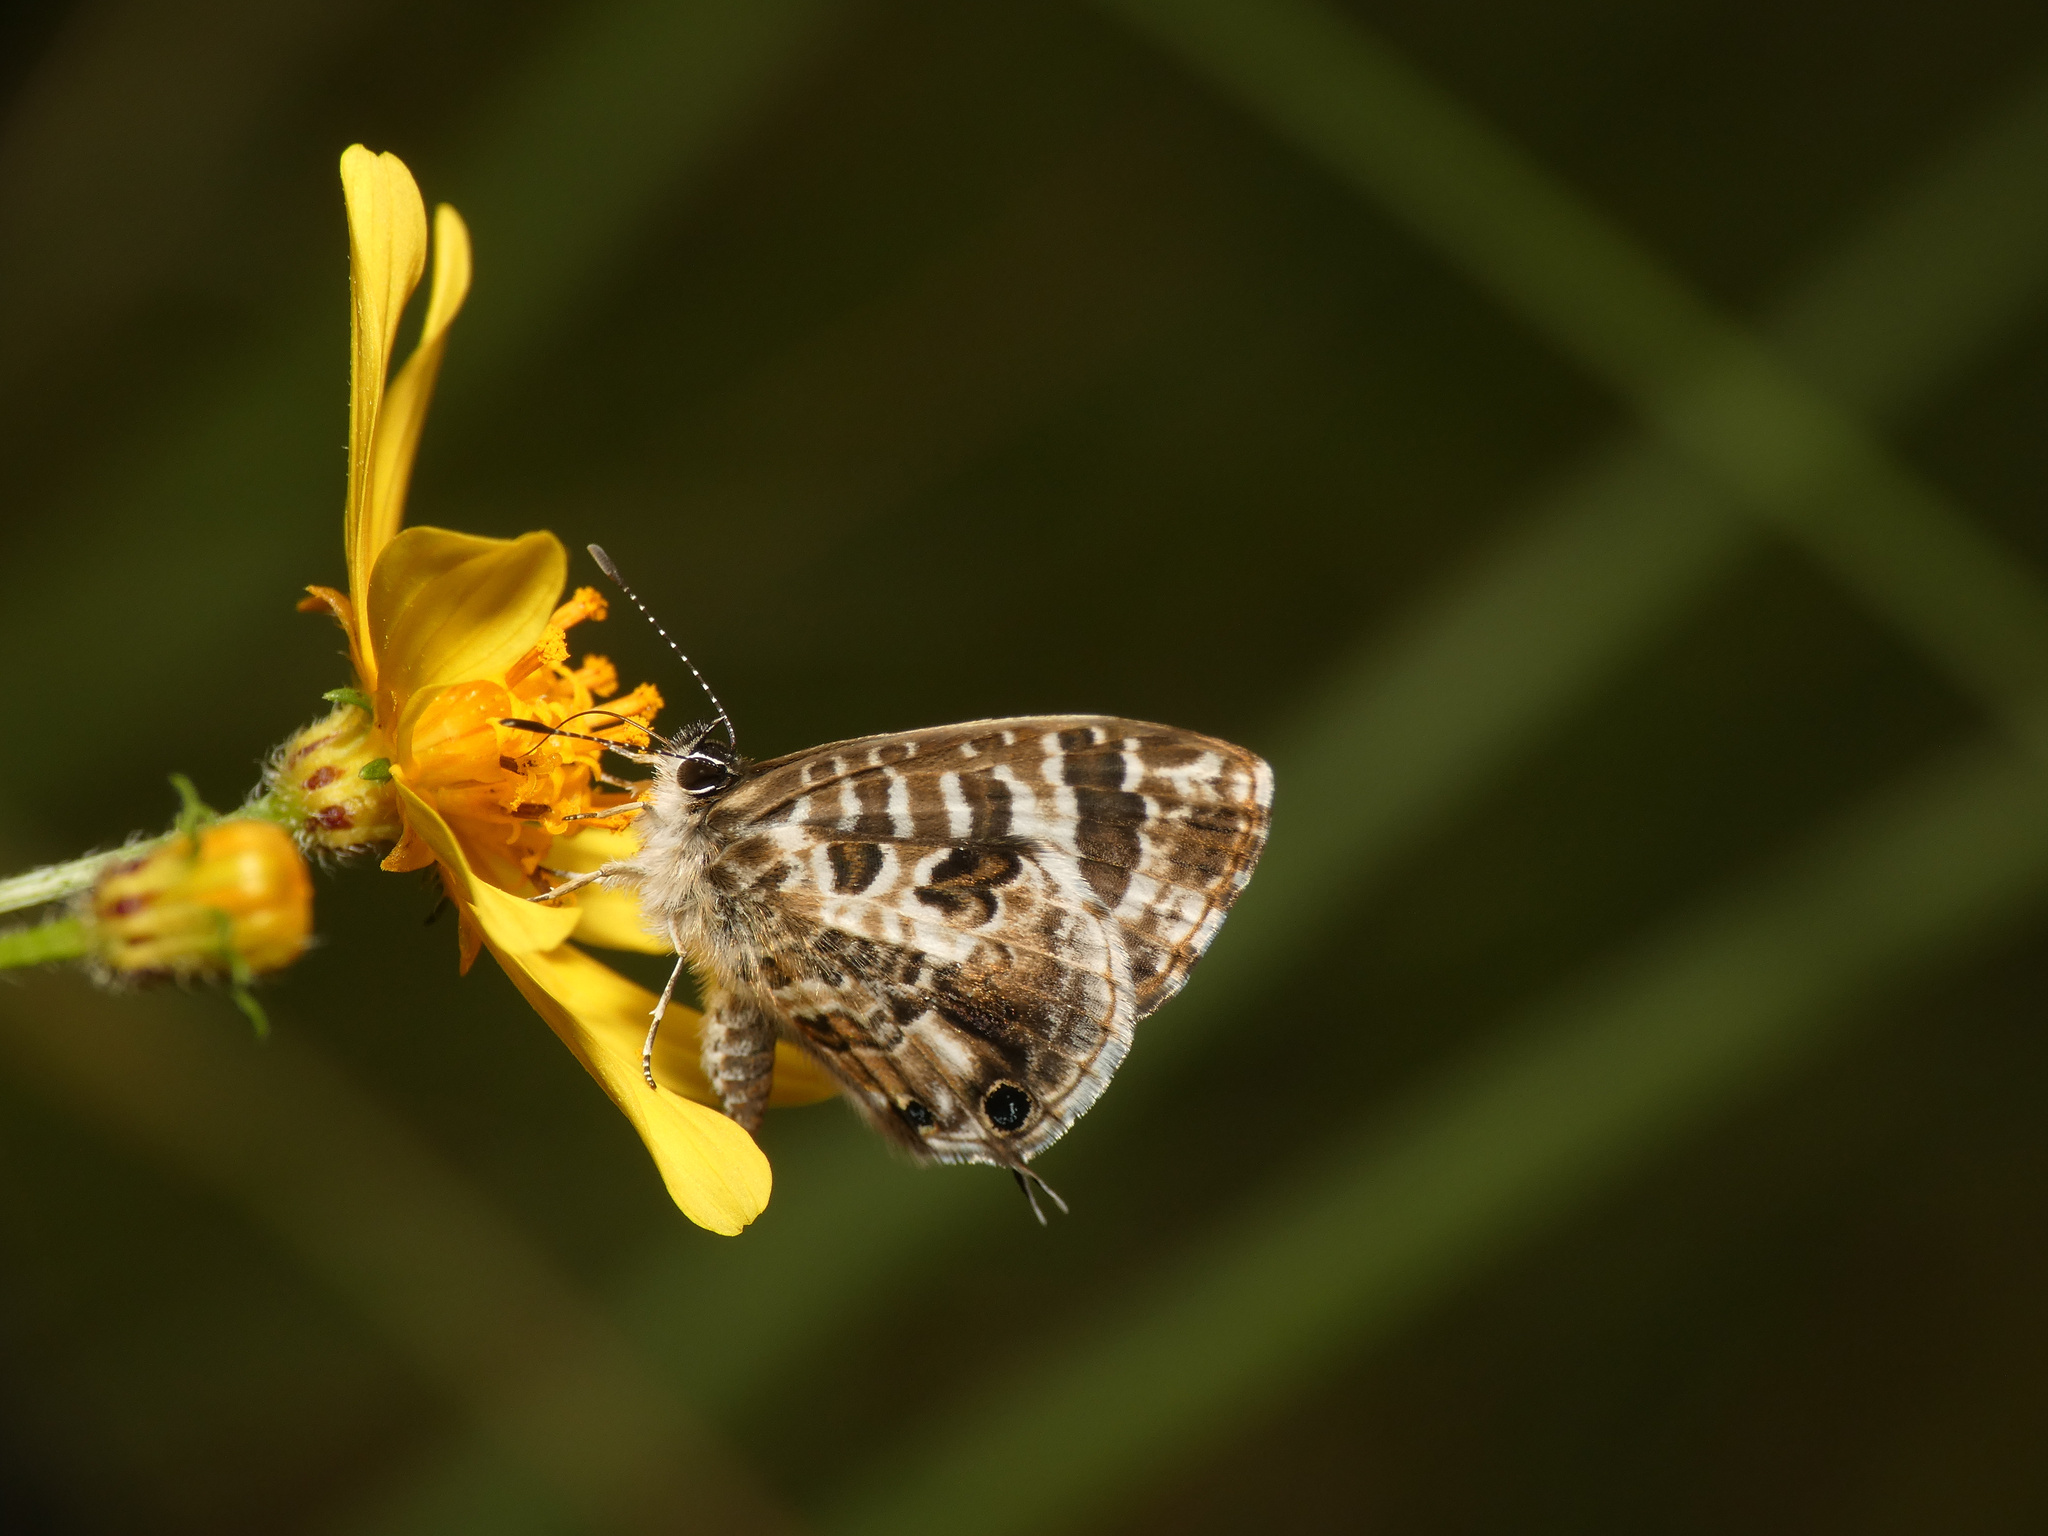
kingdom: Animalia
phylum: Arthropoda
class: Insecta
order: Lepidoptera
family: Lycaenidae
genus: Cacyreus
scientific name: Cacyreus lingeus
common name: Bush bronze
